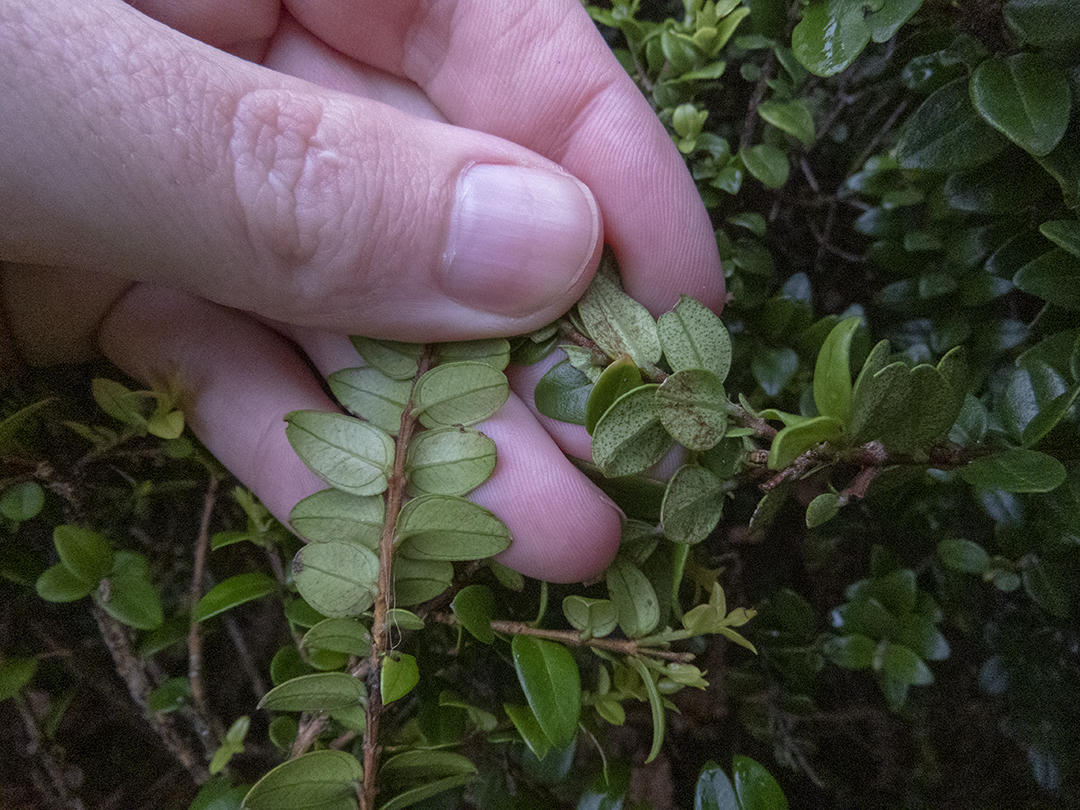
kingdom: Plantae
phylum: Tracheophyta
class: Magnoliopsida
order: Myrtales
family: Myrtaceae
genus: Metrosideros
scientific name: Metrosideros diffusa
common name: Small ratavine
